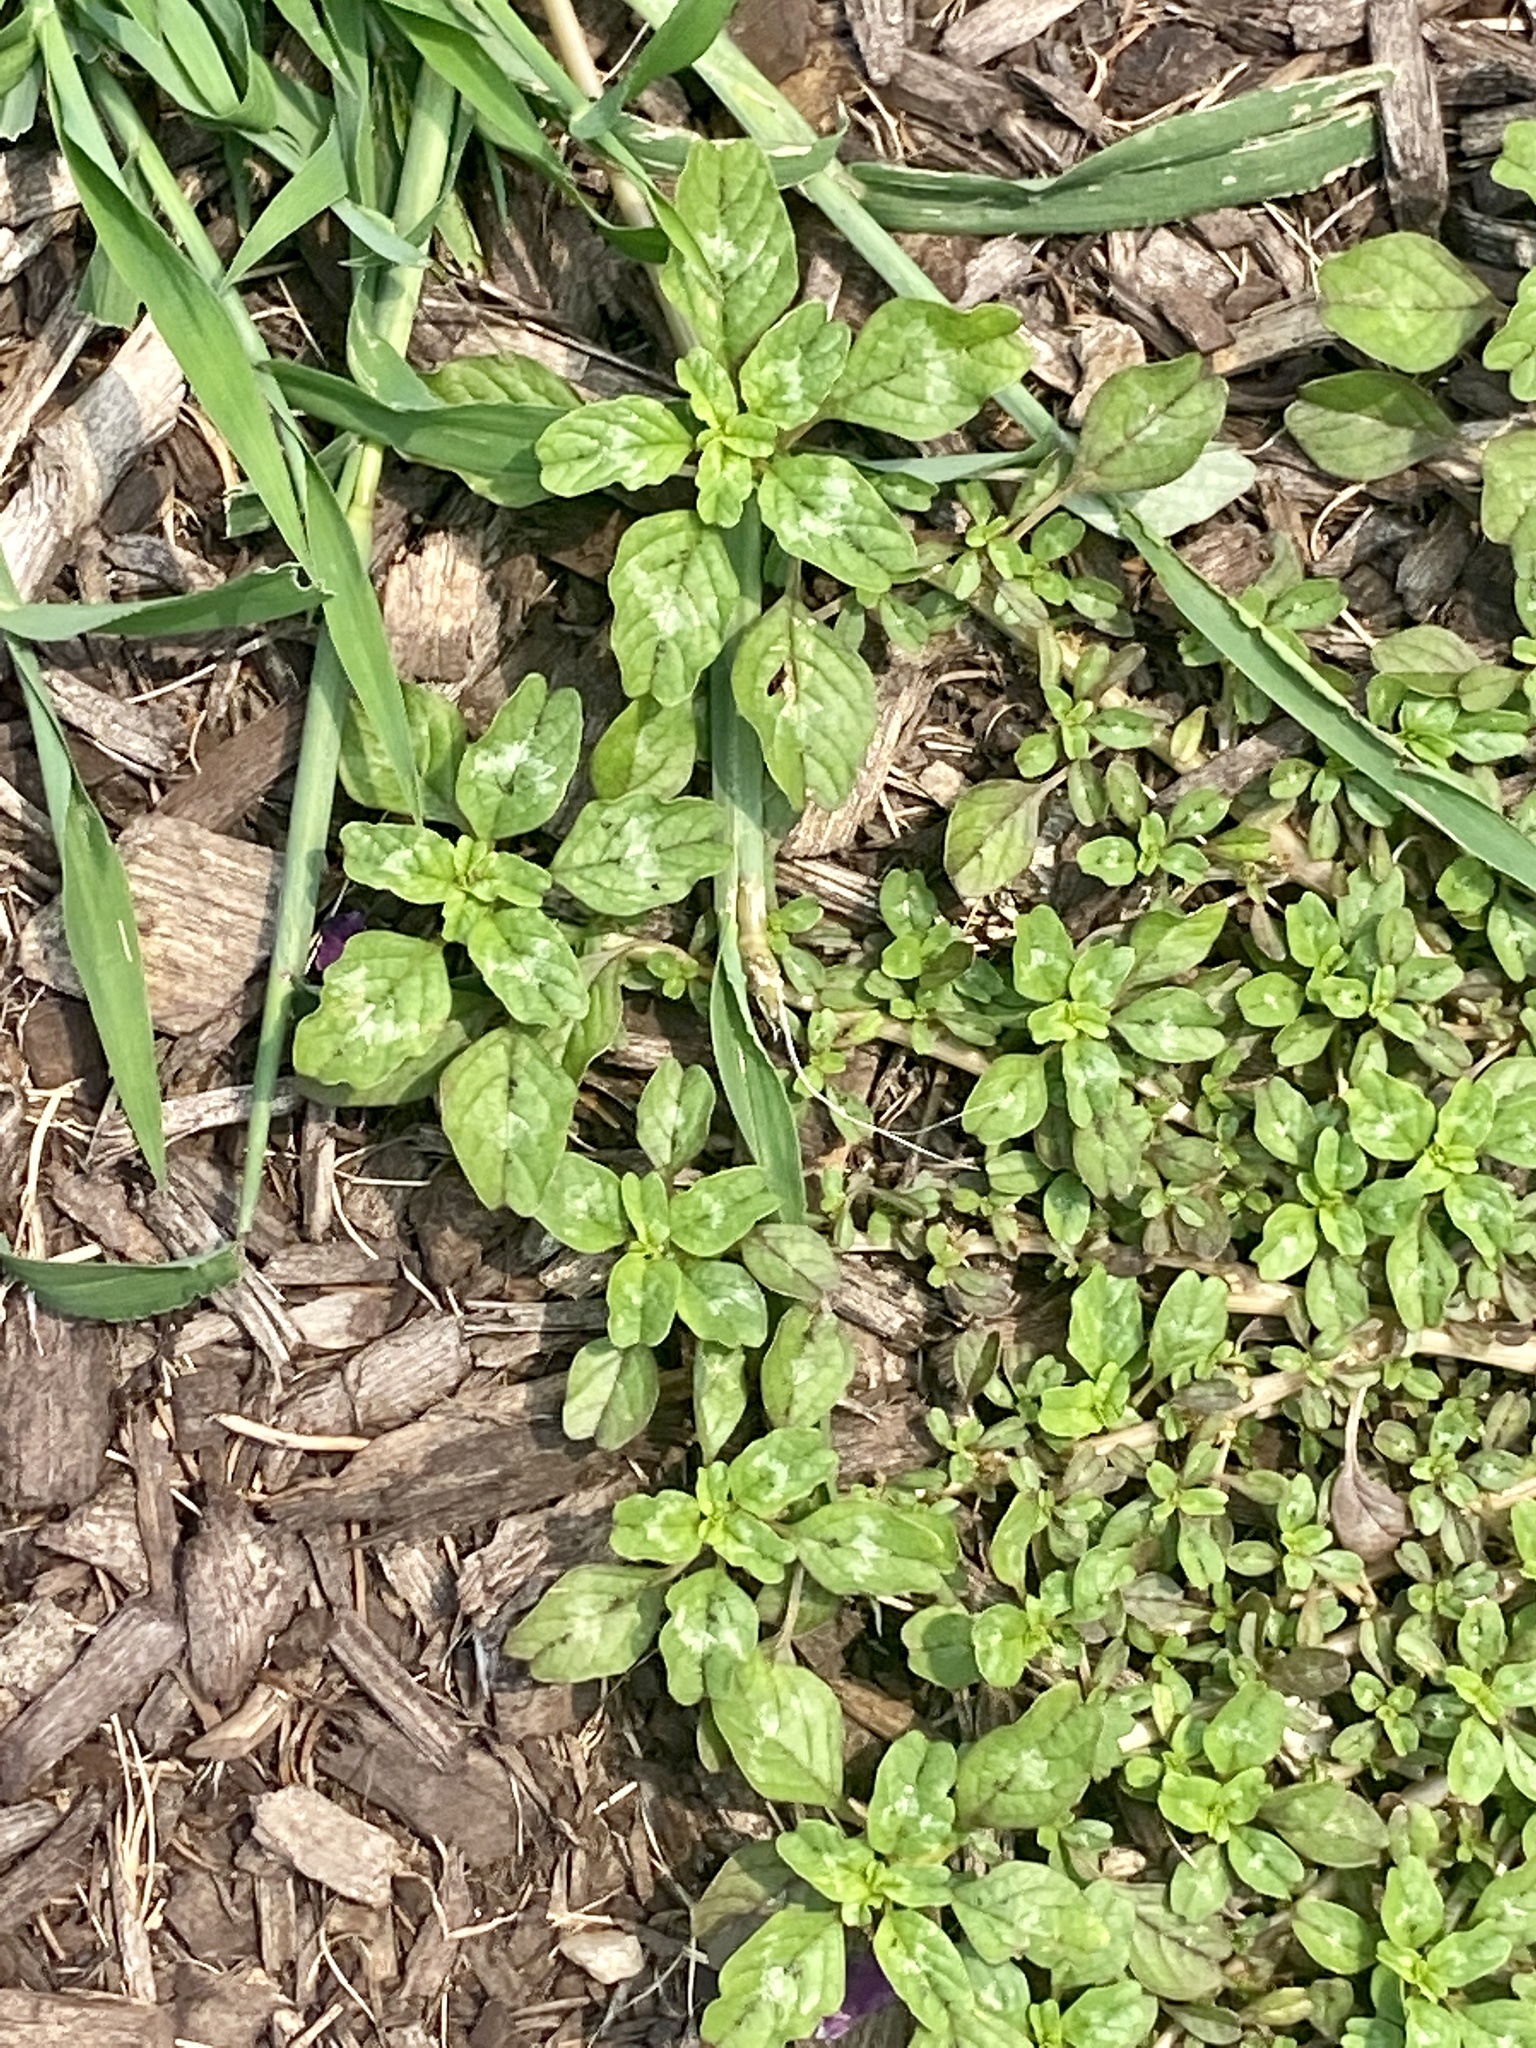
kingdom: Plantae
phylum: Tracheophyta
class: Magnoliopsida
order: Caryophyllales
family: Amaranthaceae
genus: Amaranthus
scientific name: Amaranthus blitum
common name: Purple amaranth
